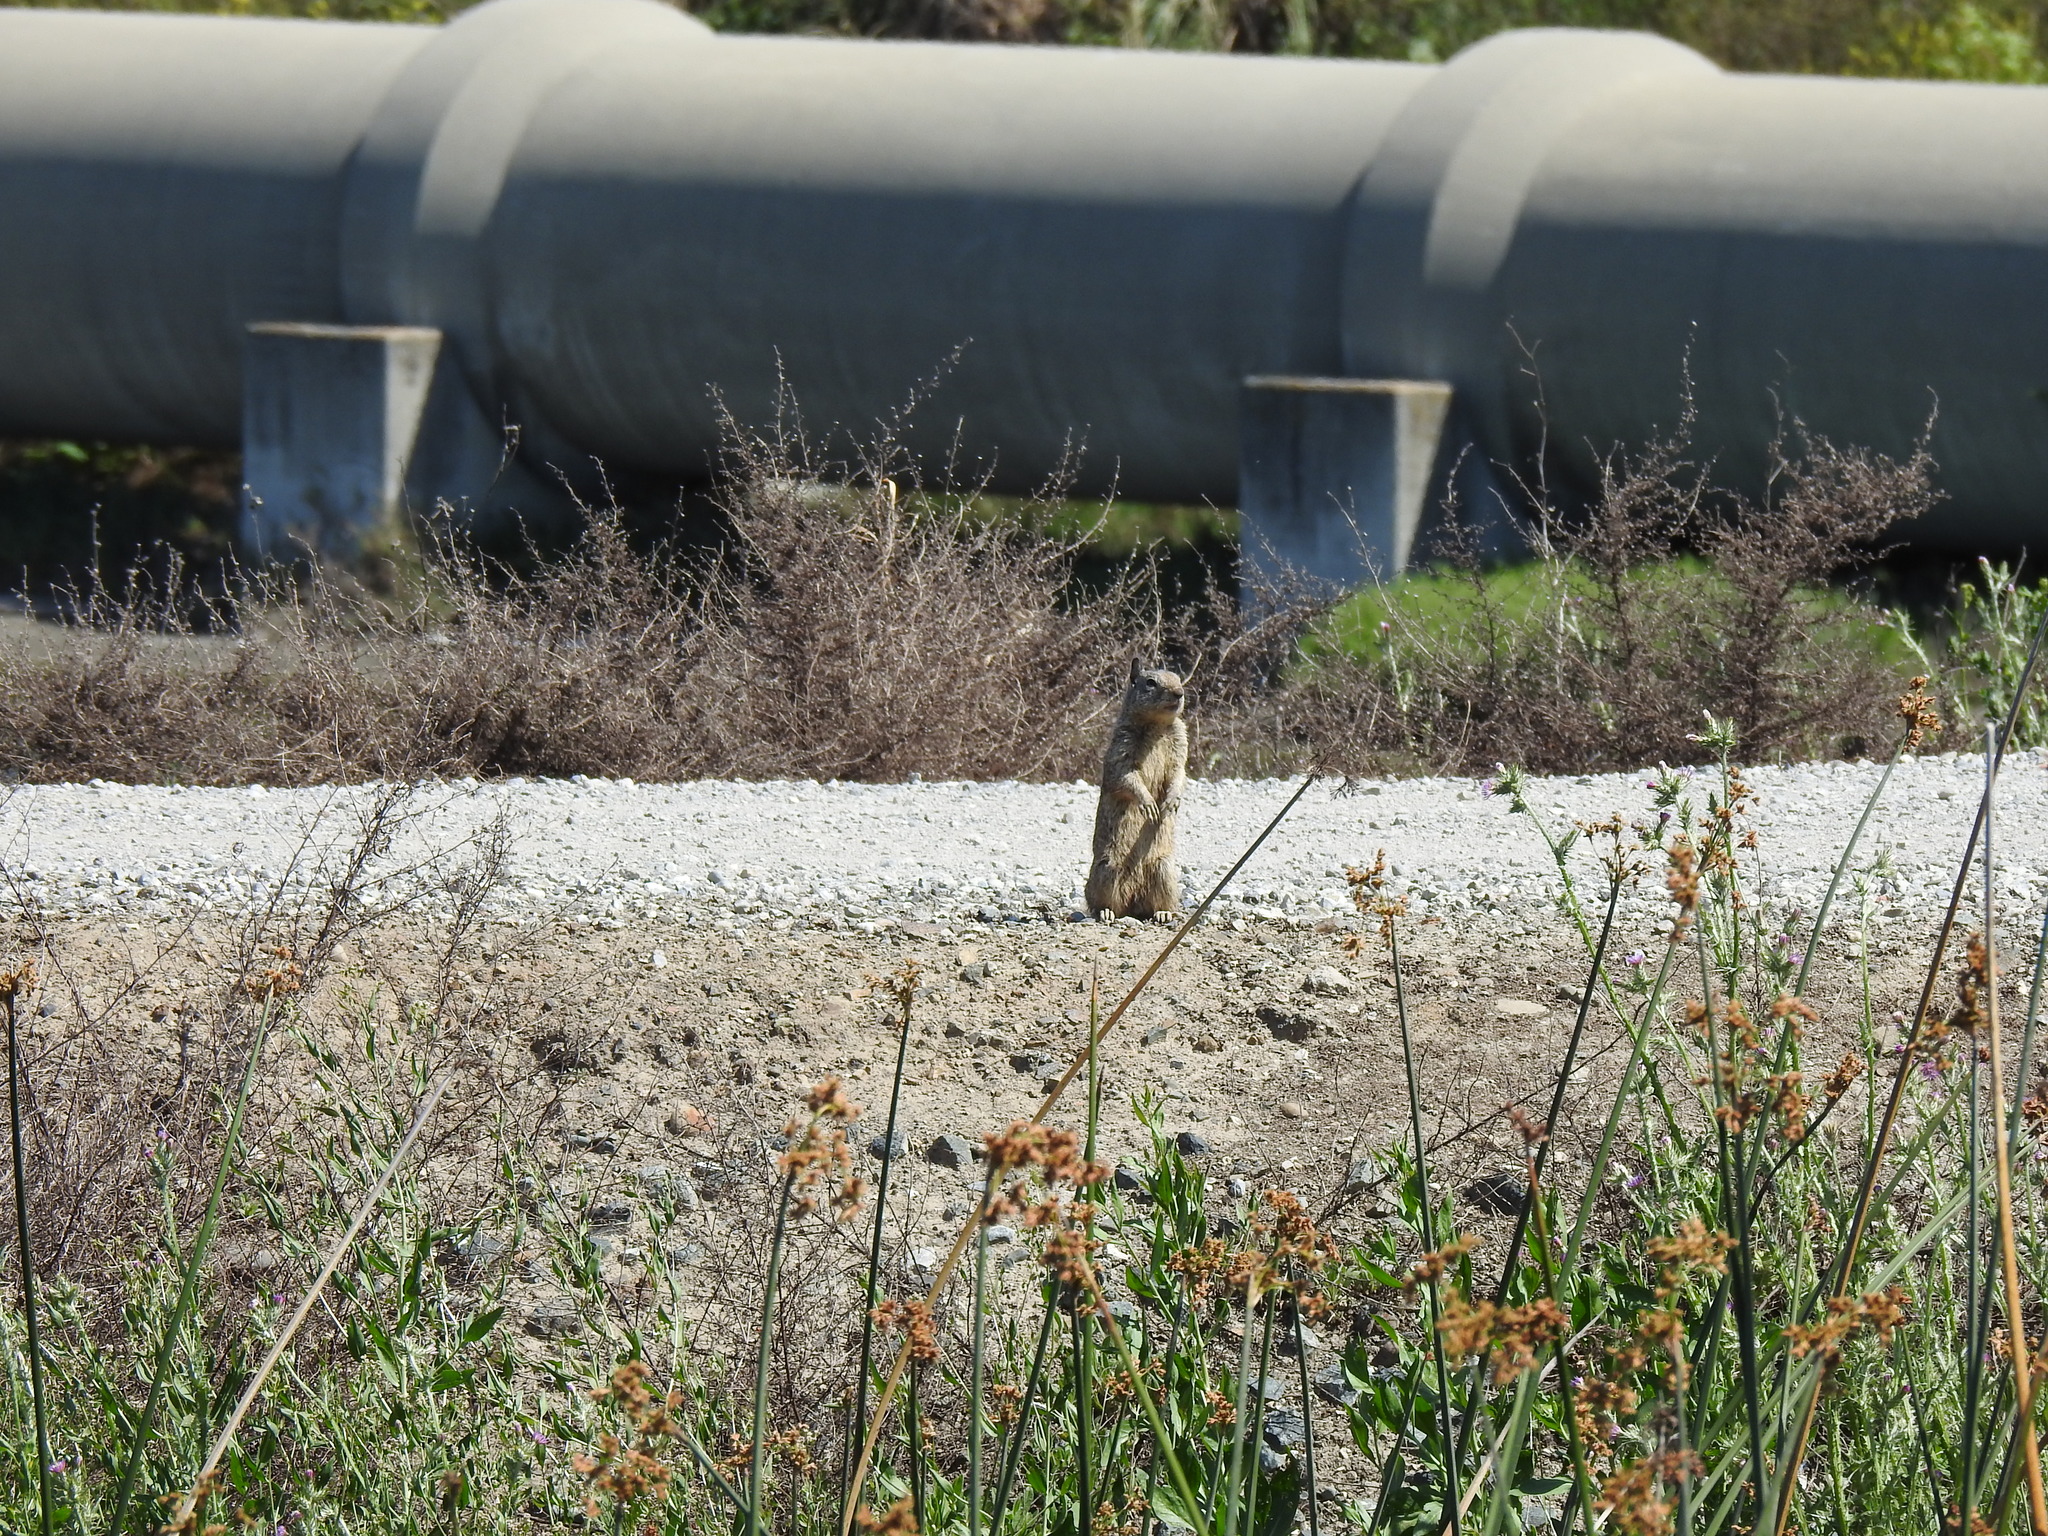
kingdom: Animalia
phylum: Chordata
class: Mammalia
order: Rodentia
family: Sciuridae
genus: Otospermophilus
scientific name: Otospermophilus beecheyi
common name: California ground squirrel
